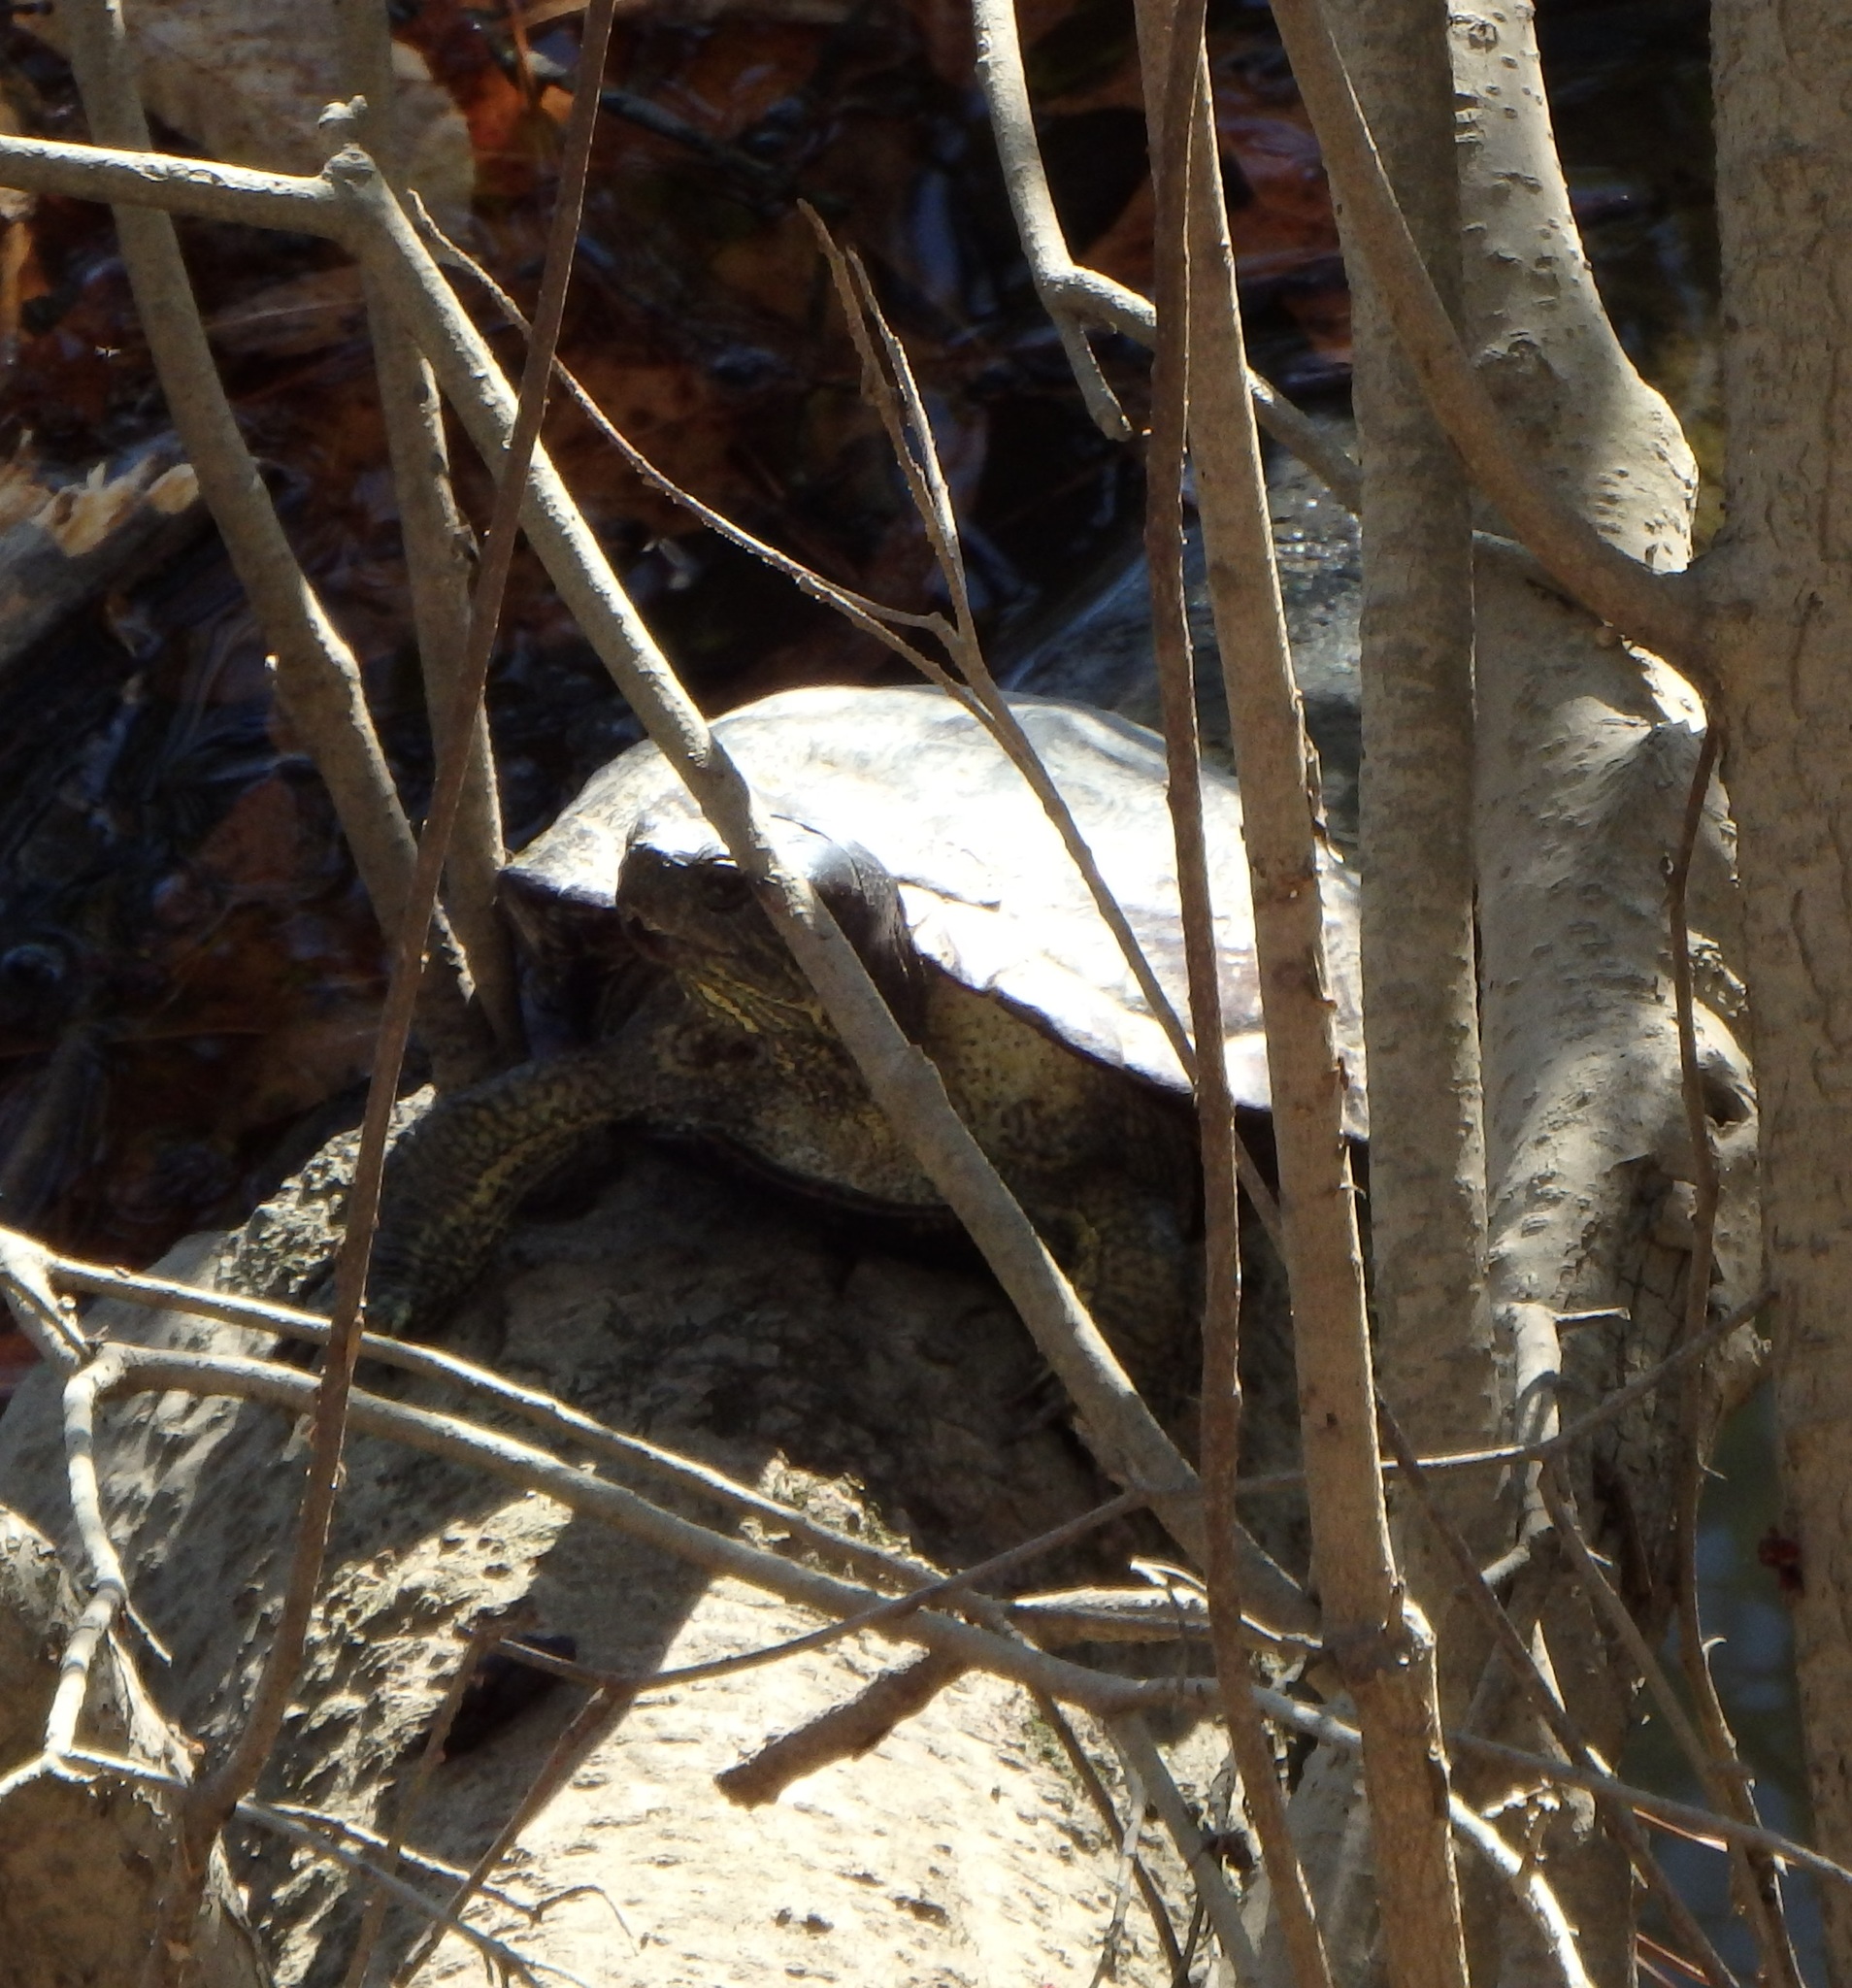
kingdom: Animalia
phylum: Chordata
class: Testudines
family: Emydidae
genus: Trachemys
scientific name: Trachemys scripta
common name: Slider
